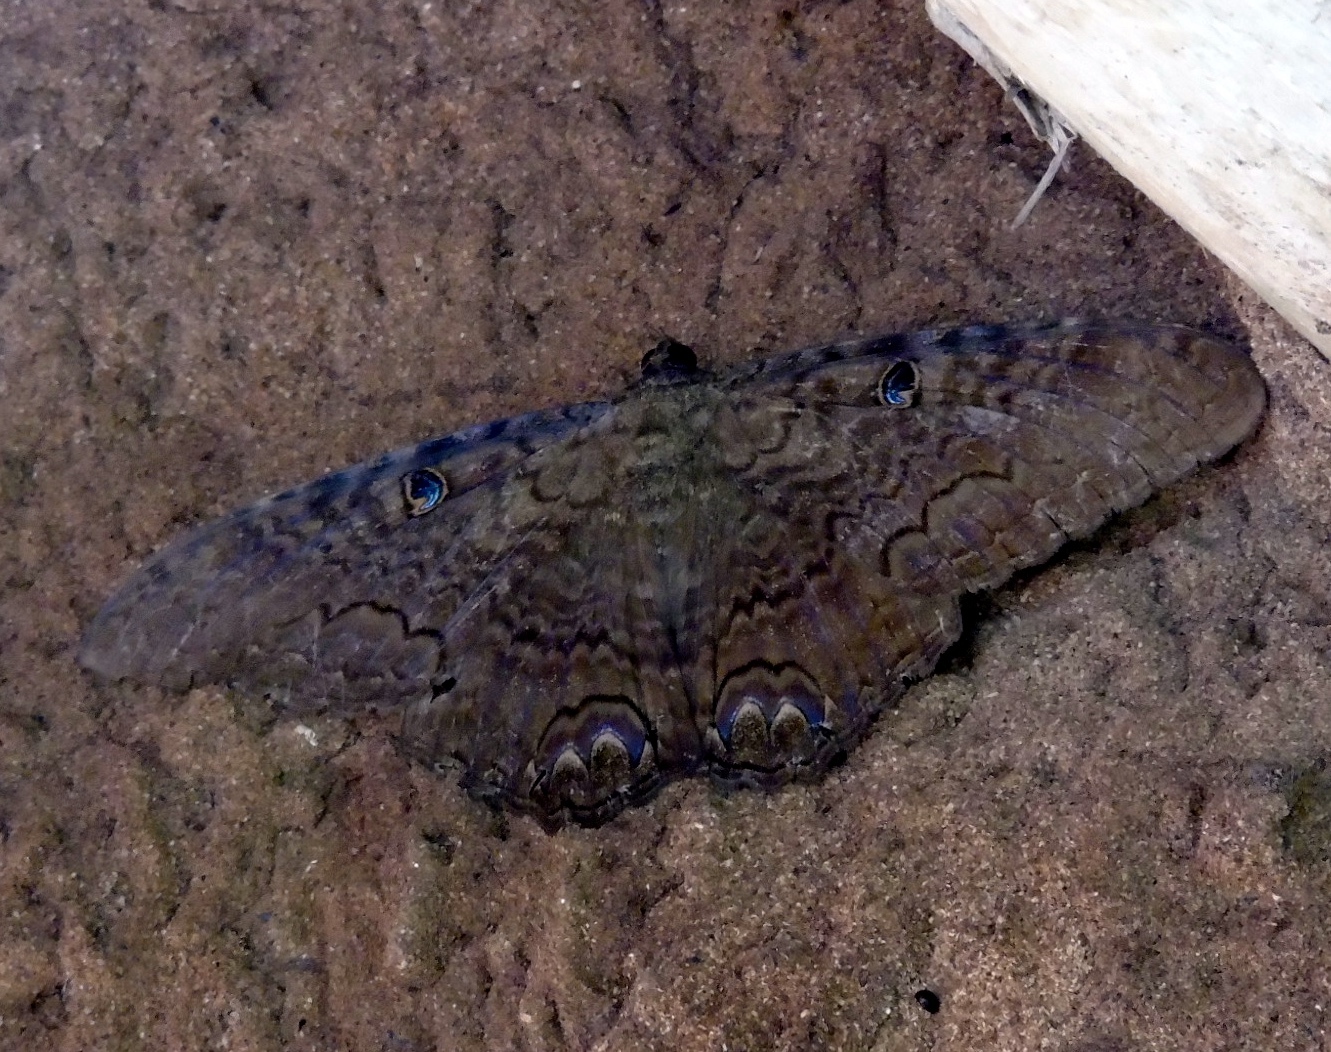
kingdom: Animalia
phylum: Arthropoda
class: Insecta
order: Lepidoptera
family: Erebidae
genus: Ascalapha
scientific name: Ascalapha odorata
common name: Black witch
